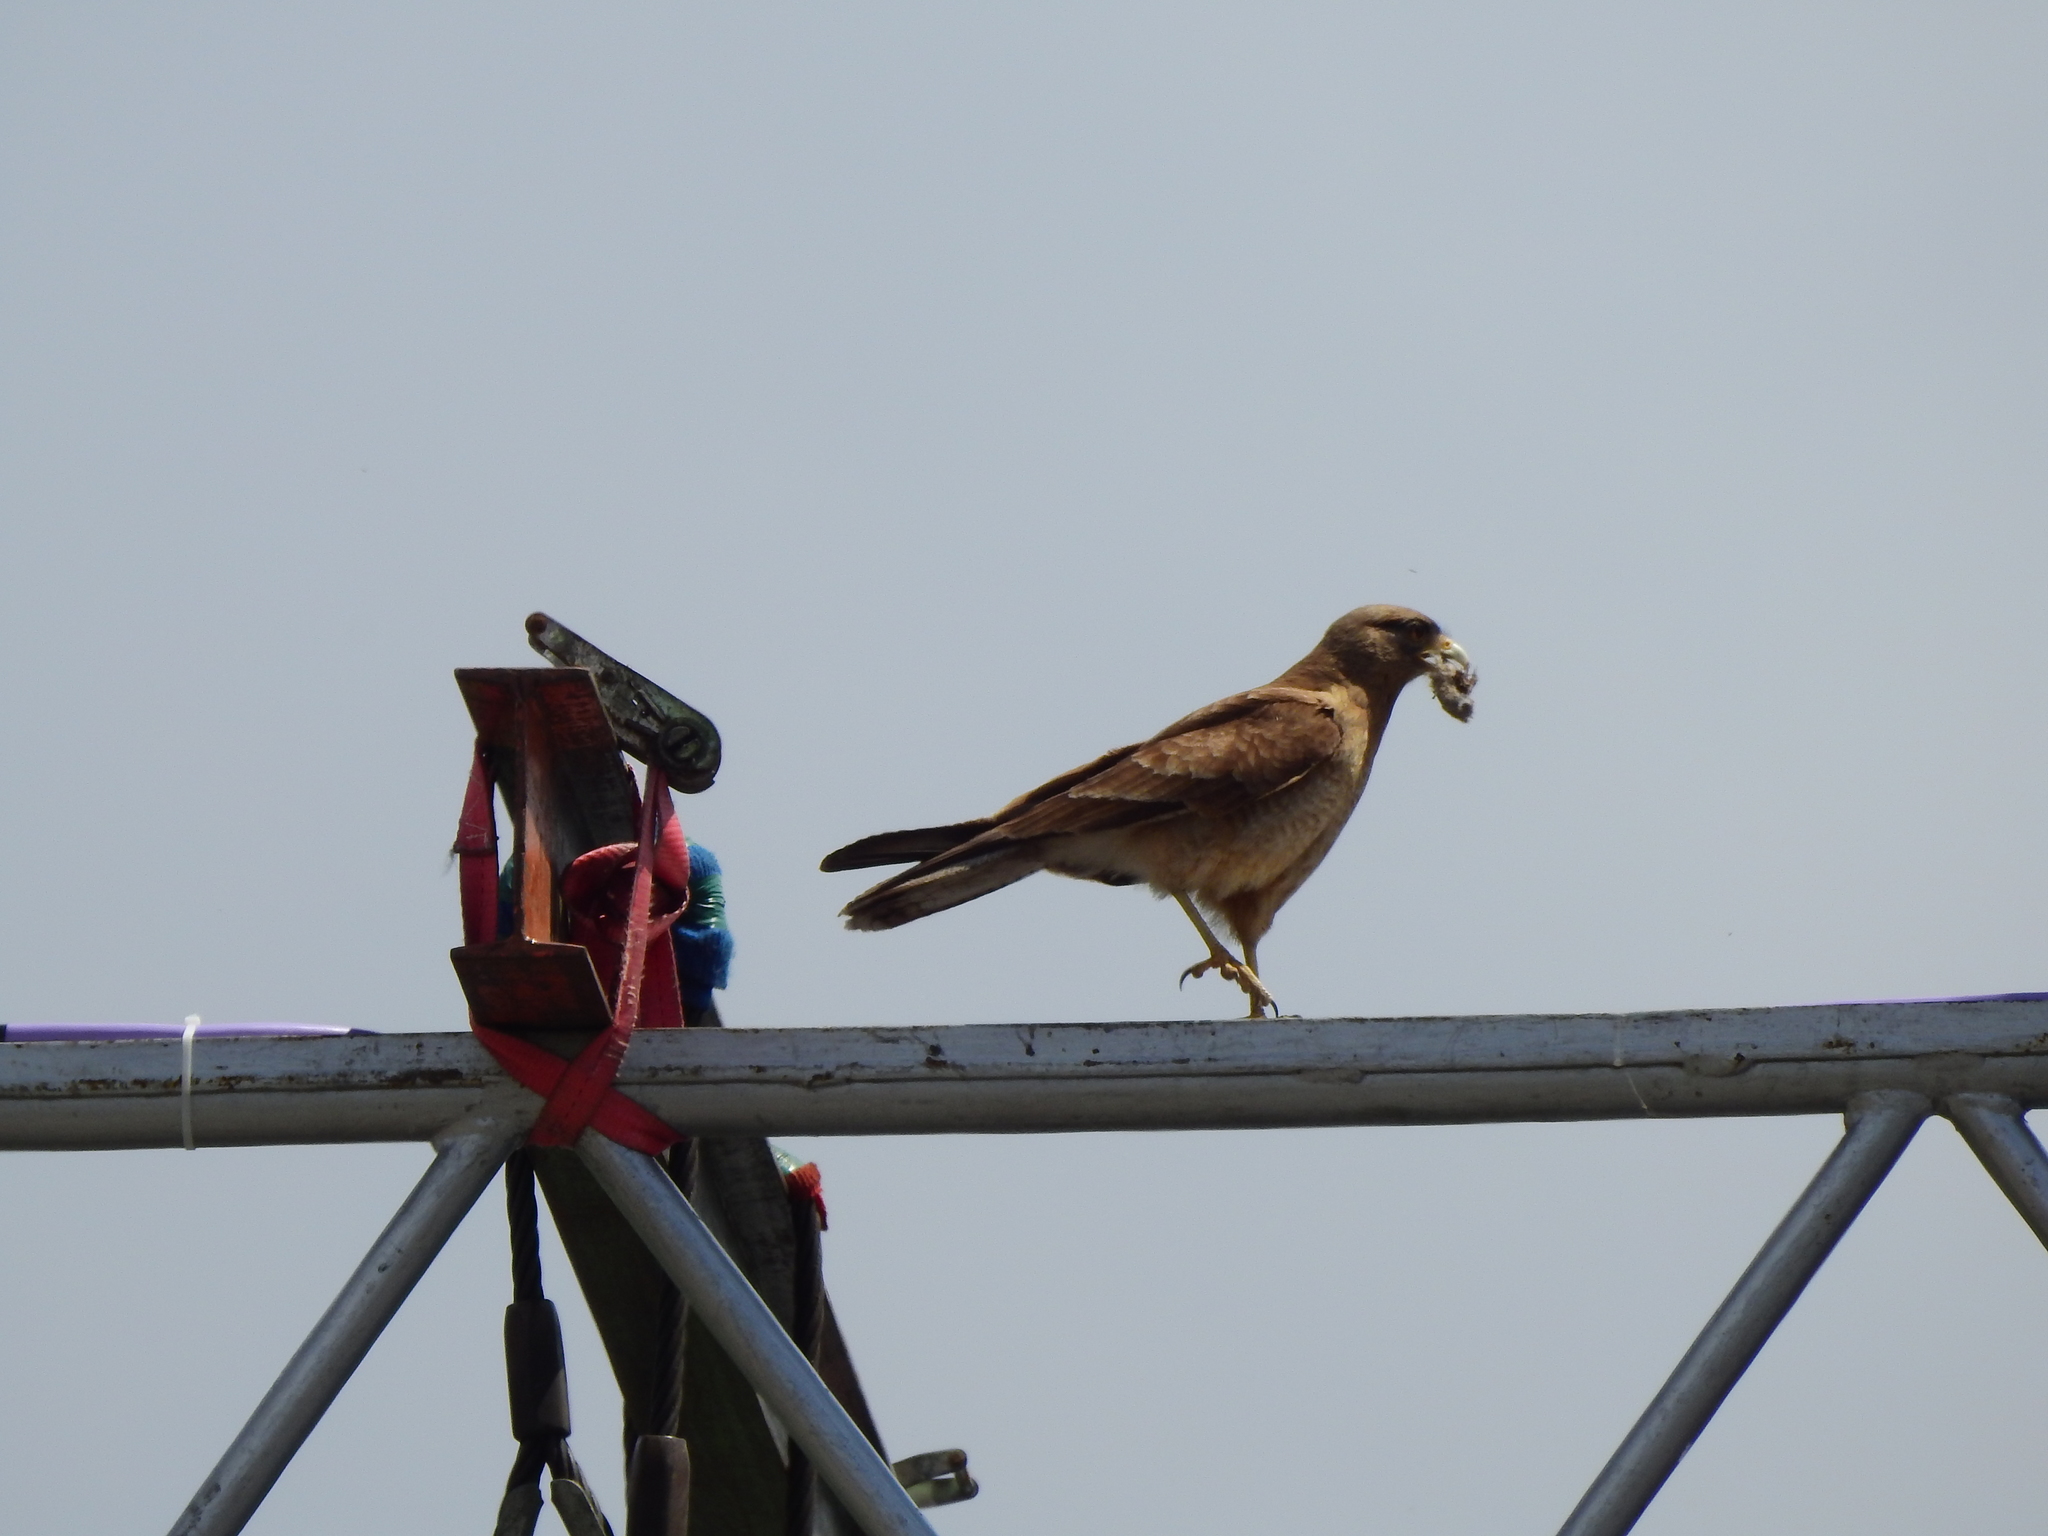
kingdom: Animalia
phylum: Chordata
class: Aves
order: Falconiformes
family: Falconidae
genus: Daptrius
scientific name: Daptrius
